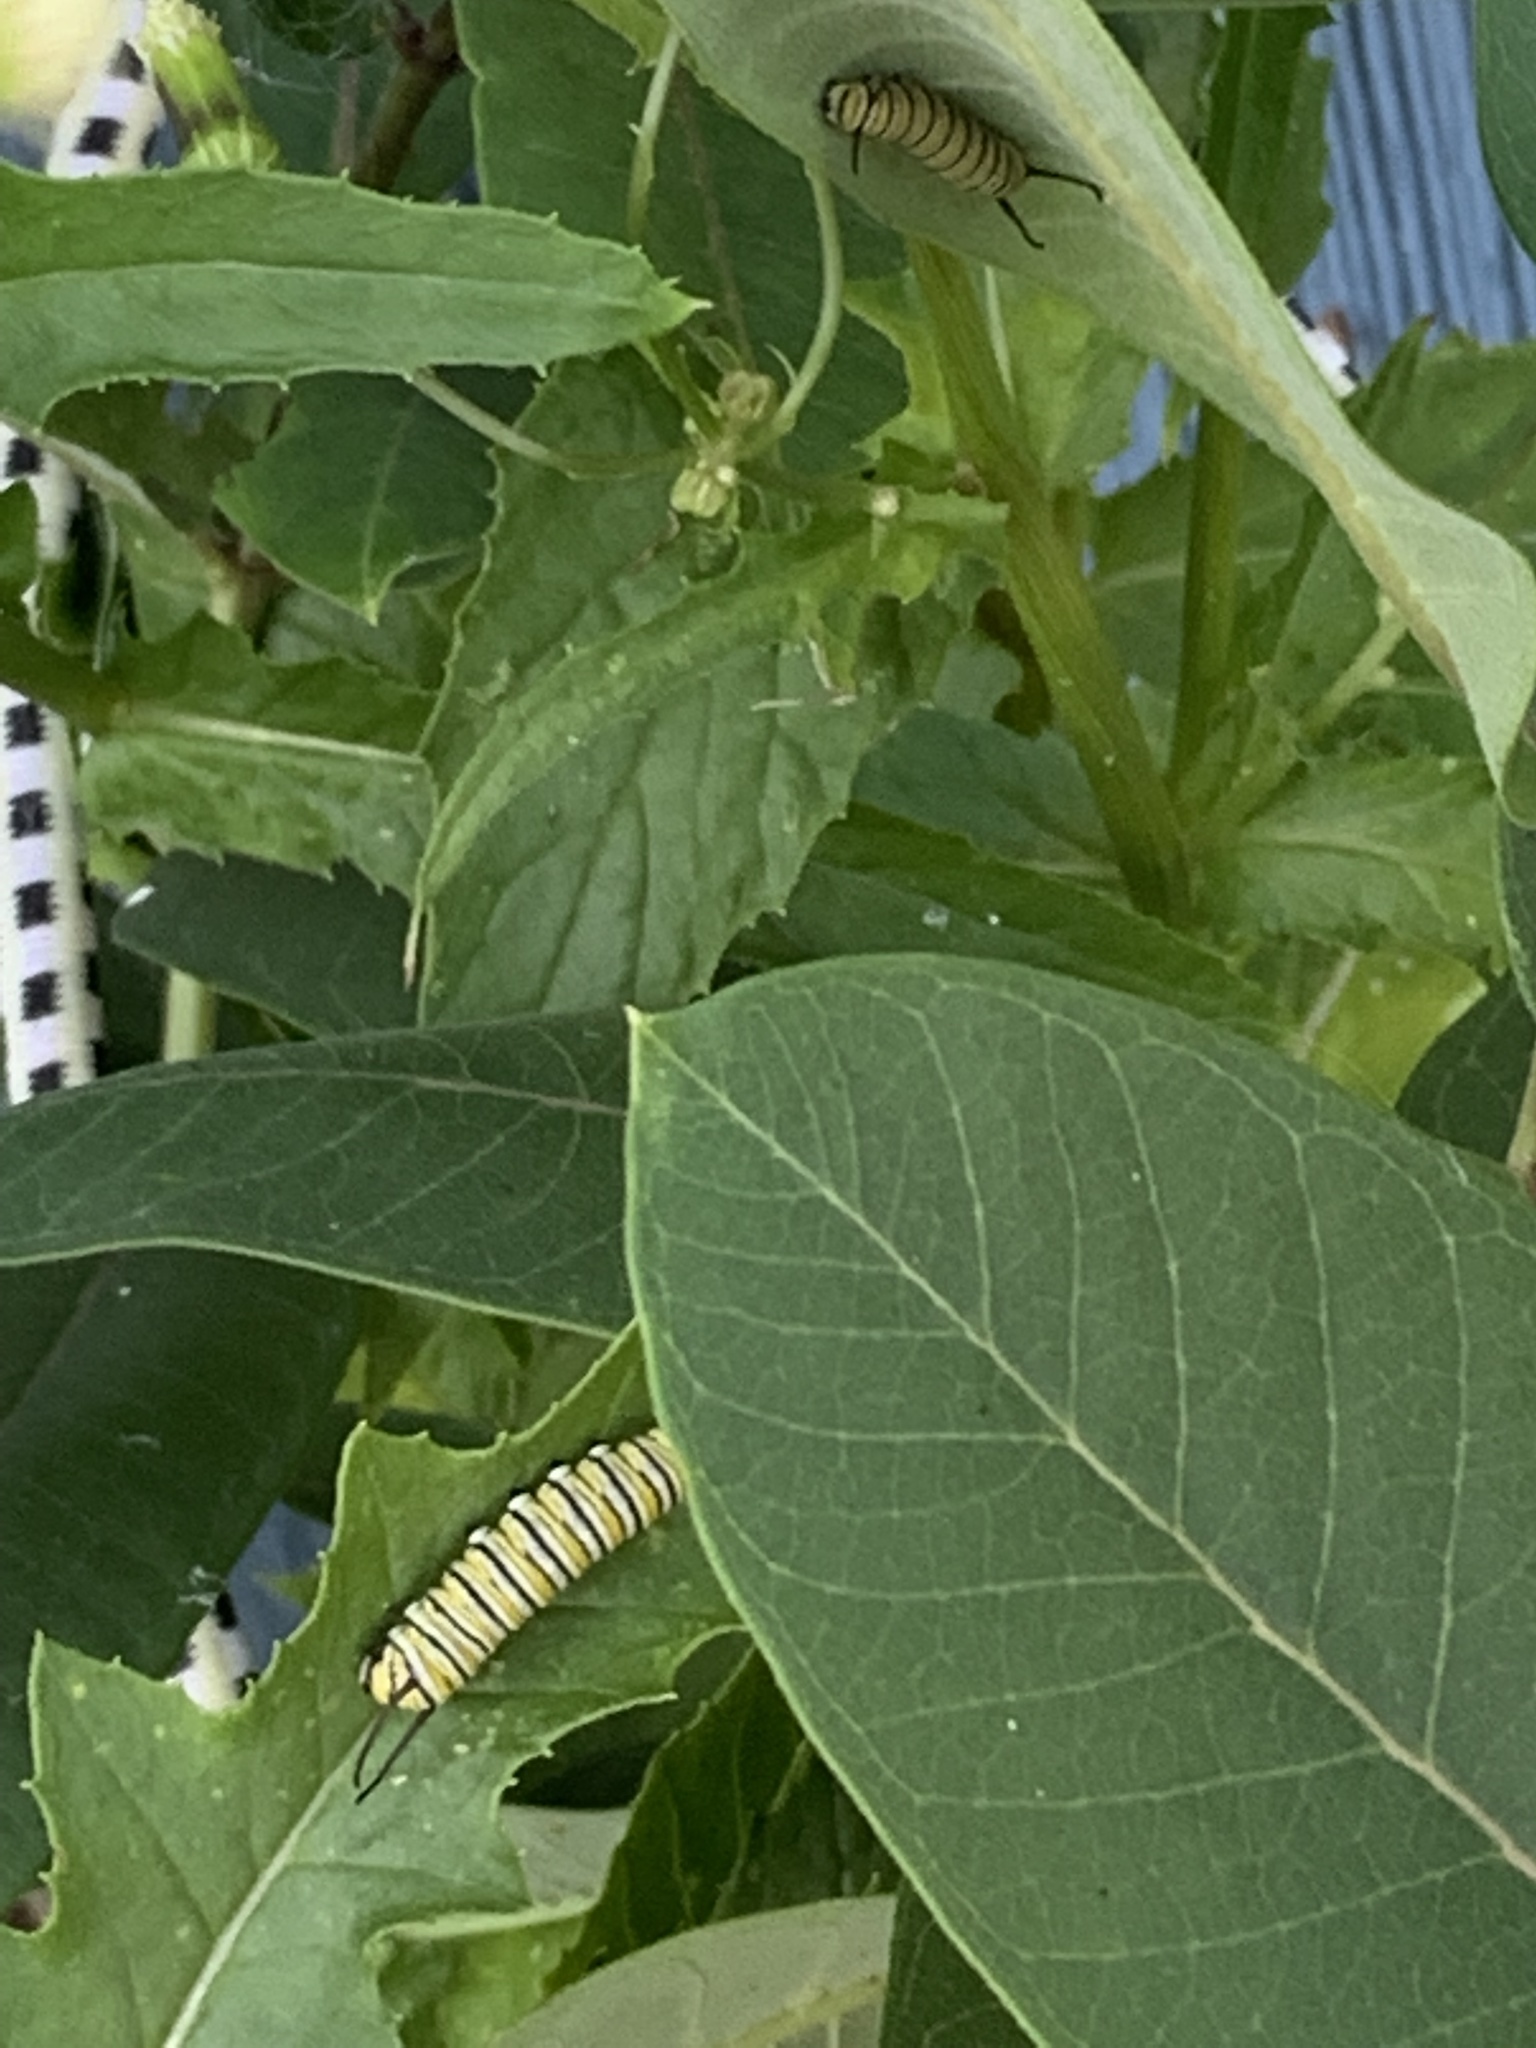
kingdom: Animalia
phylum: Arthropoda
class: Insecta
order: Lepidoptera
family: Nymphalidae
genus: Danaus
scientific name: Danaus plexippus
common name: Monarch
